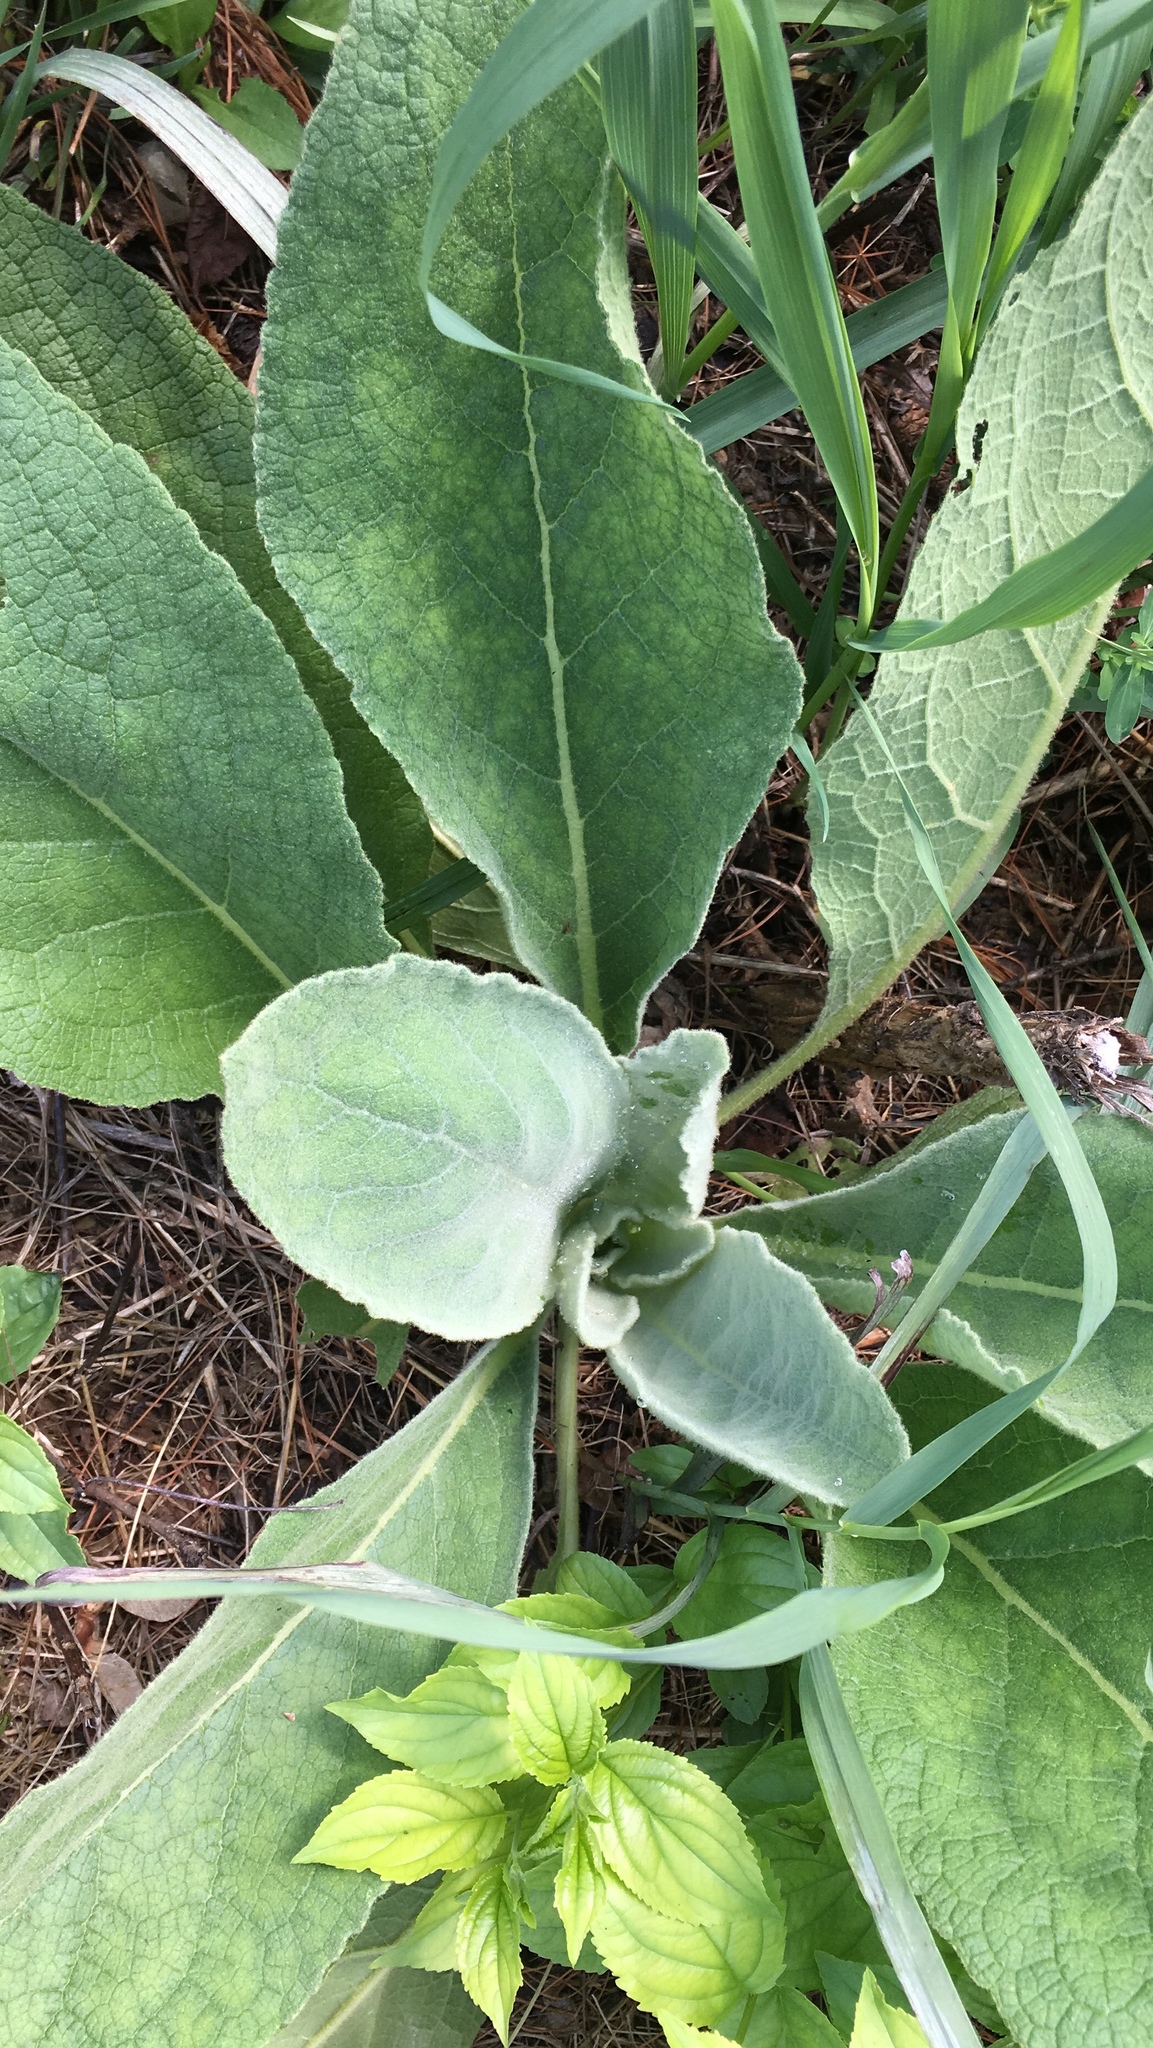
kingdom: Plantae
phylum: Tracheophyta
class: Magnoliopsida
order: Lamiales
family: Scrophulariaceae
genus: Verbascum
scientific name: Verbascum thapsus
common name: Common mullein
